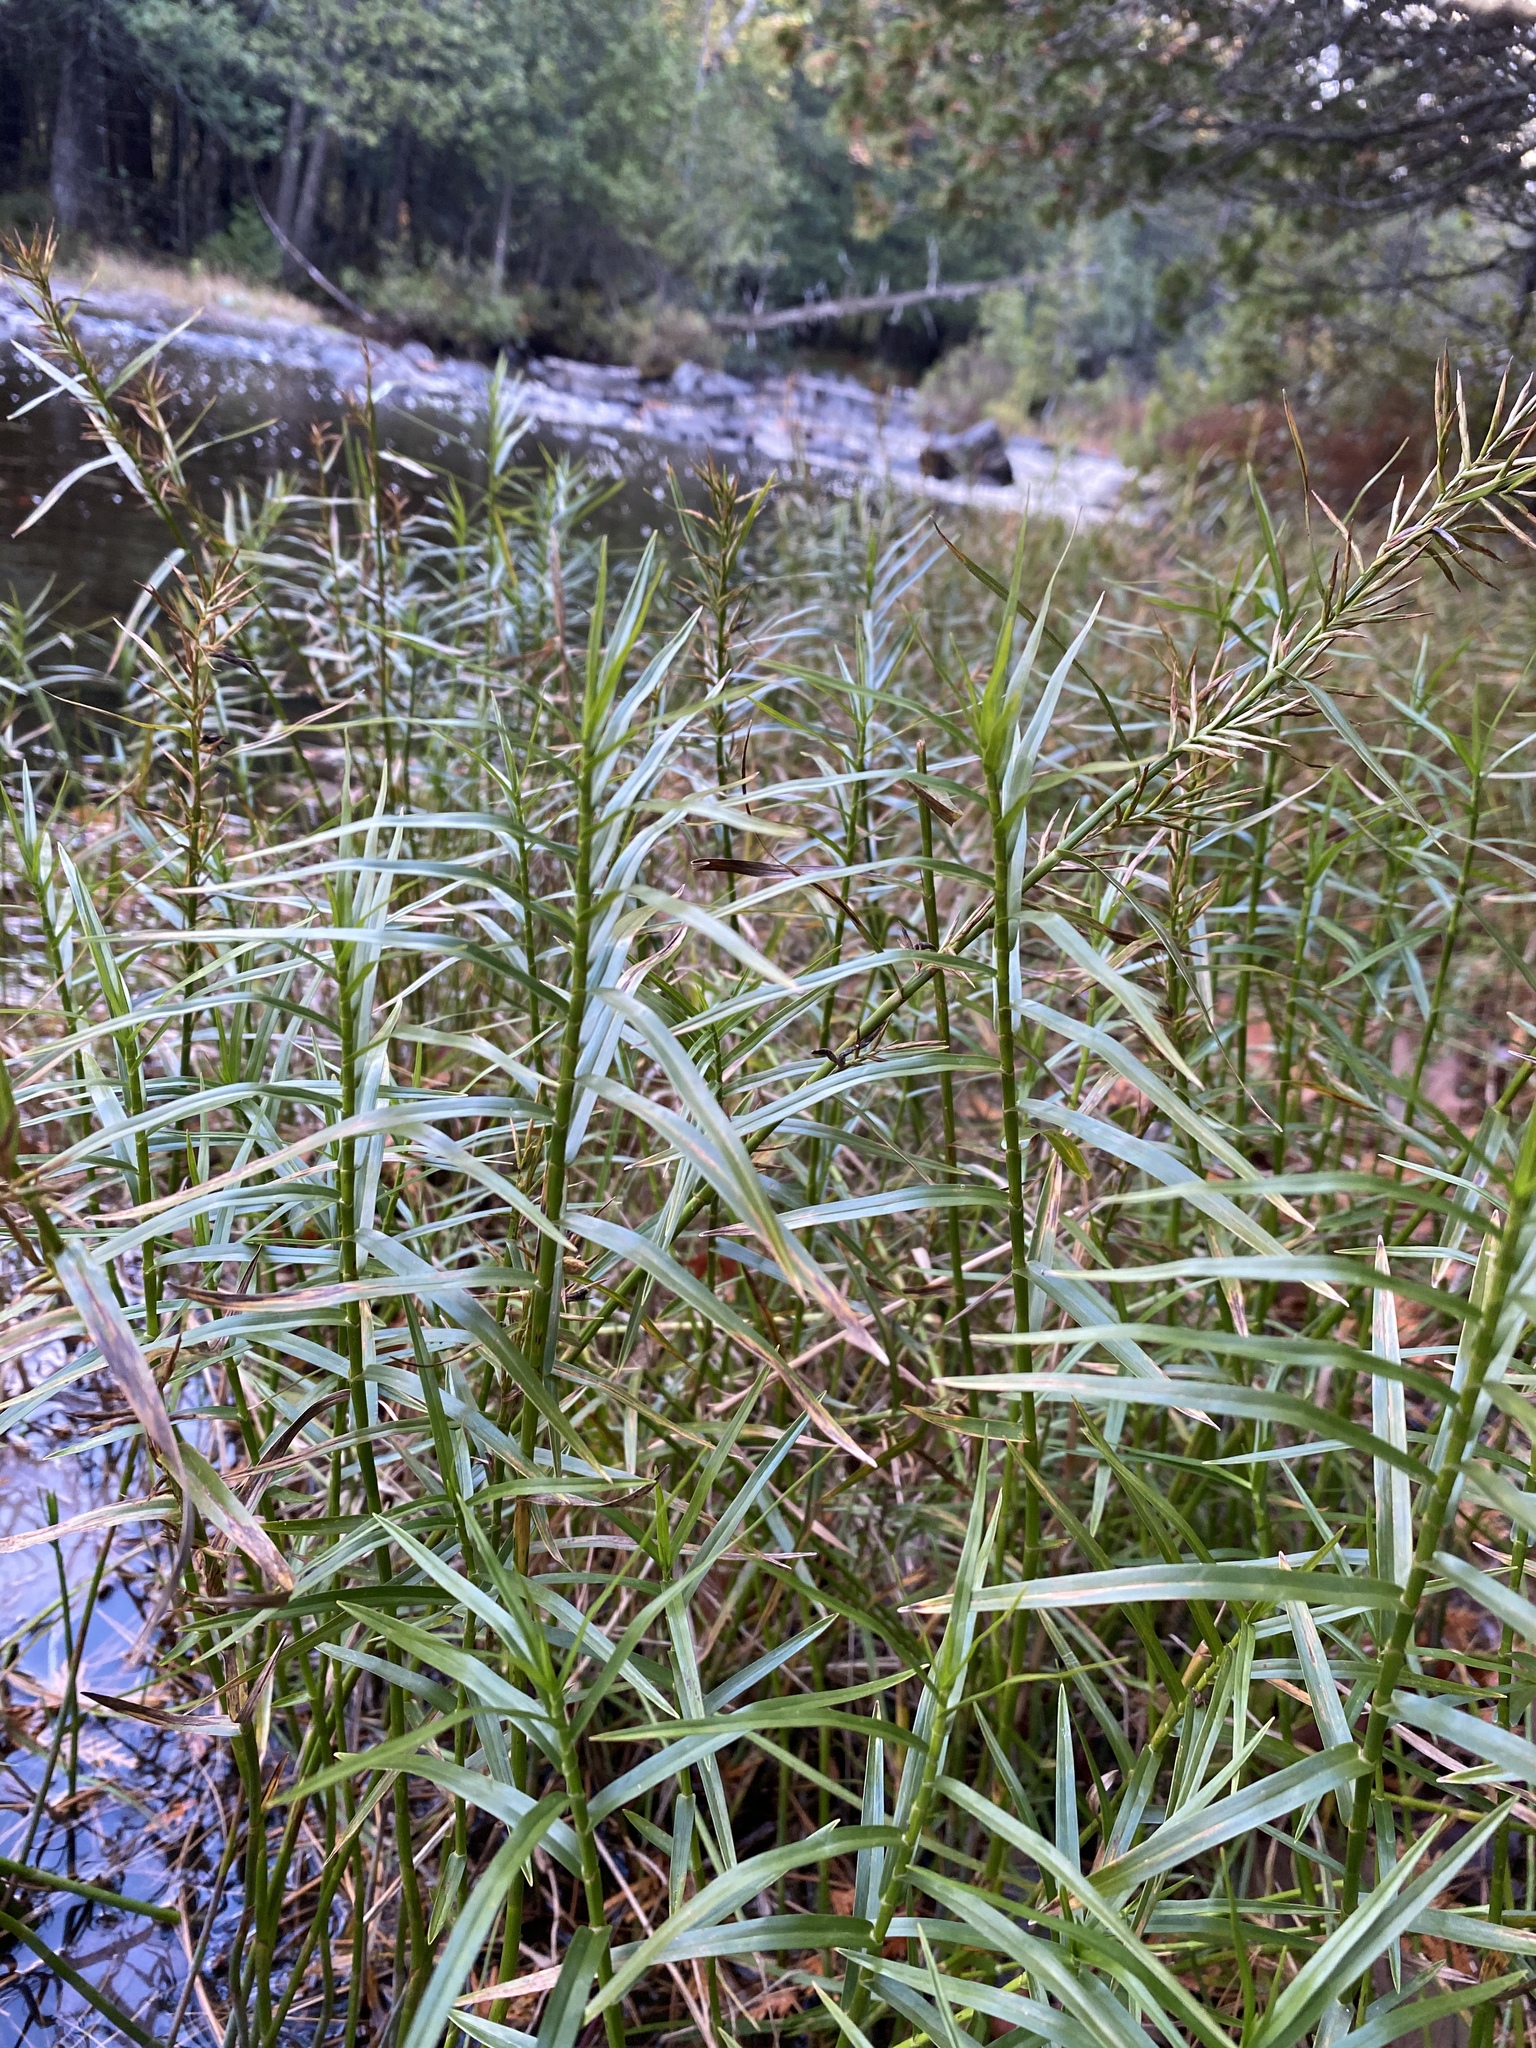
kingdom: Plantae
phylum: Tracheophyta
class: Liliopsida
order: Poales
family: Cyperaceae
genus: Dulichium
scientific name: Dulichium arundinaceum
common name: Three-way sedge
